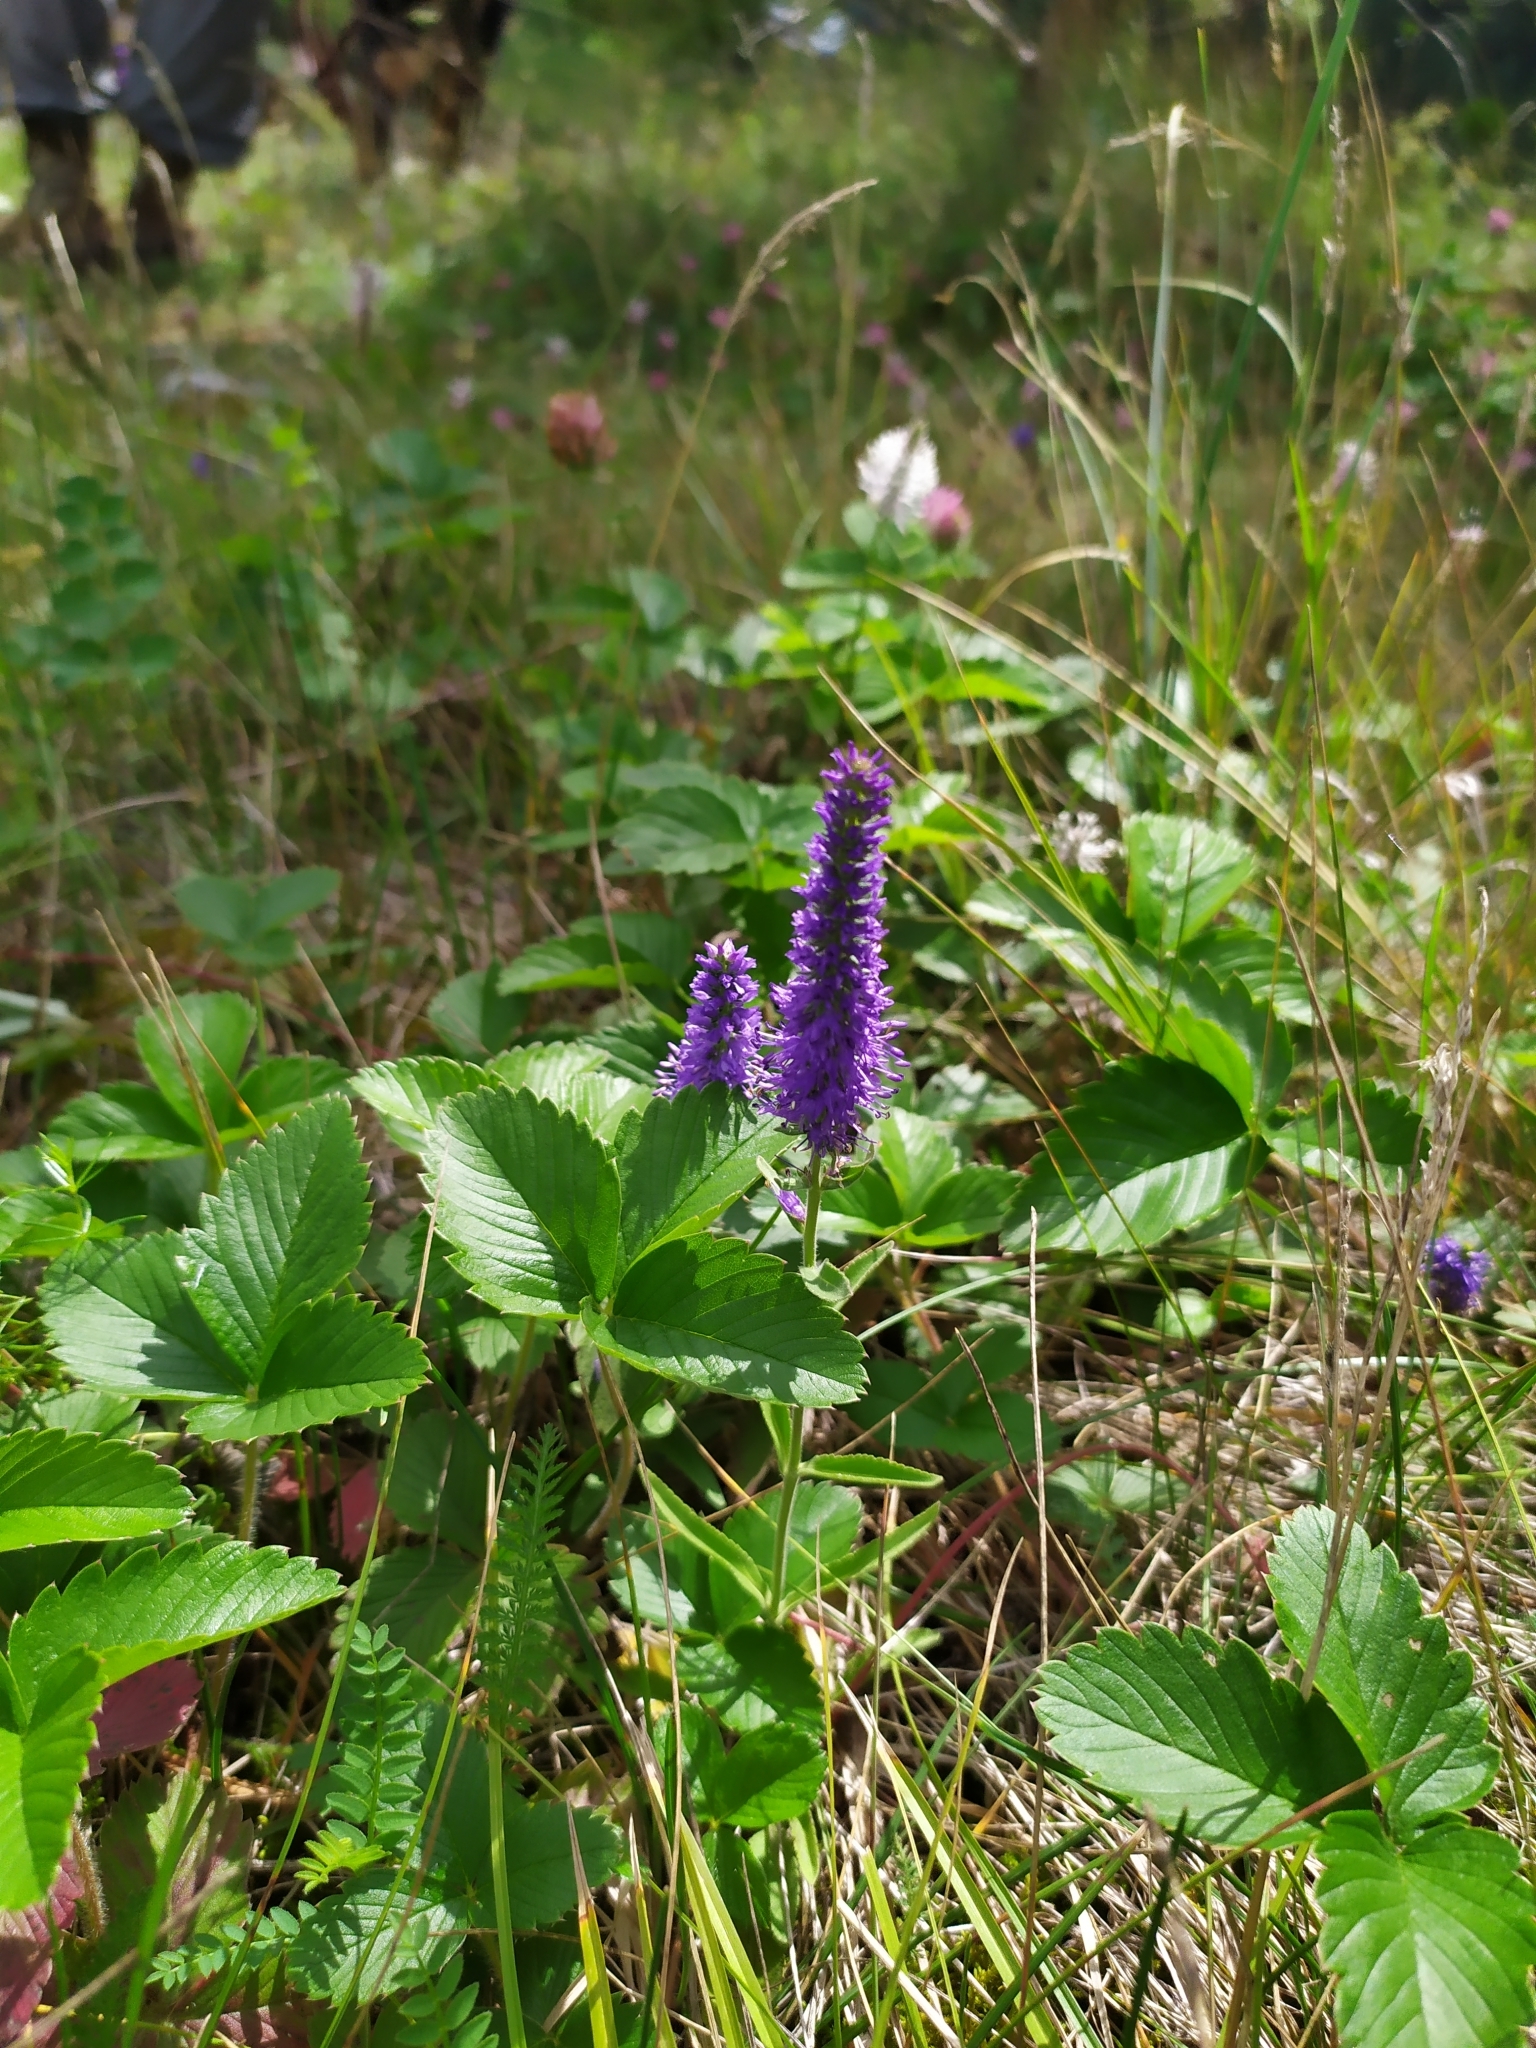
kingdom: Plantae
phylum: Tracheophyta
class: Magnoliopsida
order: Lamiales
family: Plantaginaceae
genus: Veronica
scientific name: Veronica spicata
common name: Spiked speedwell
